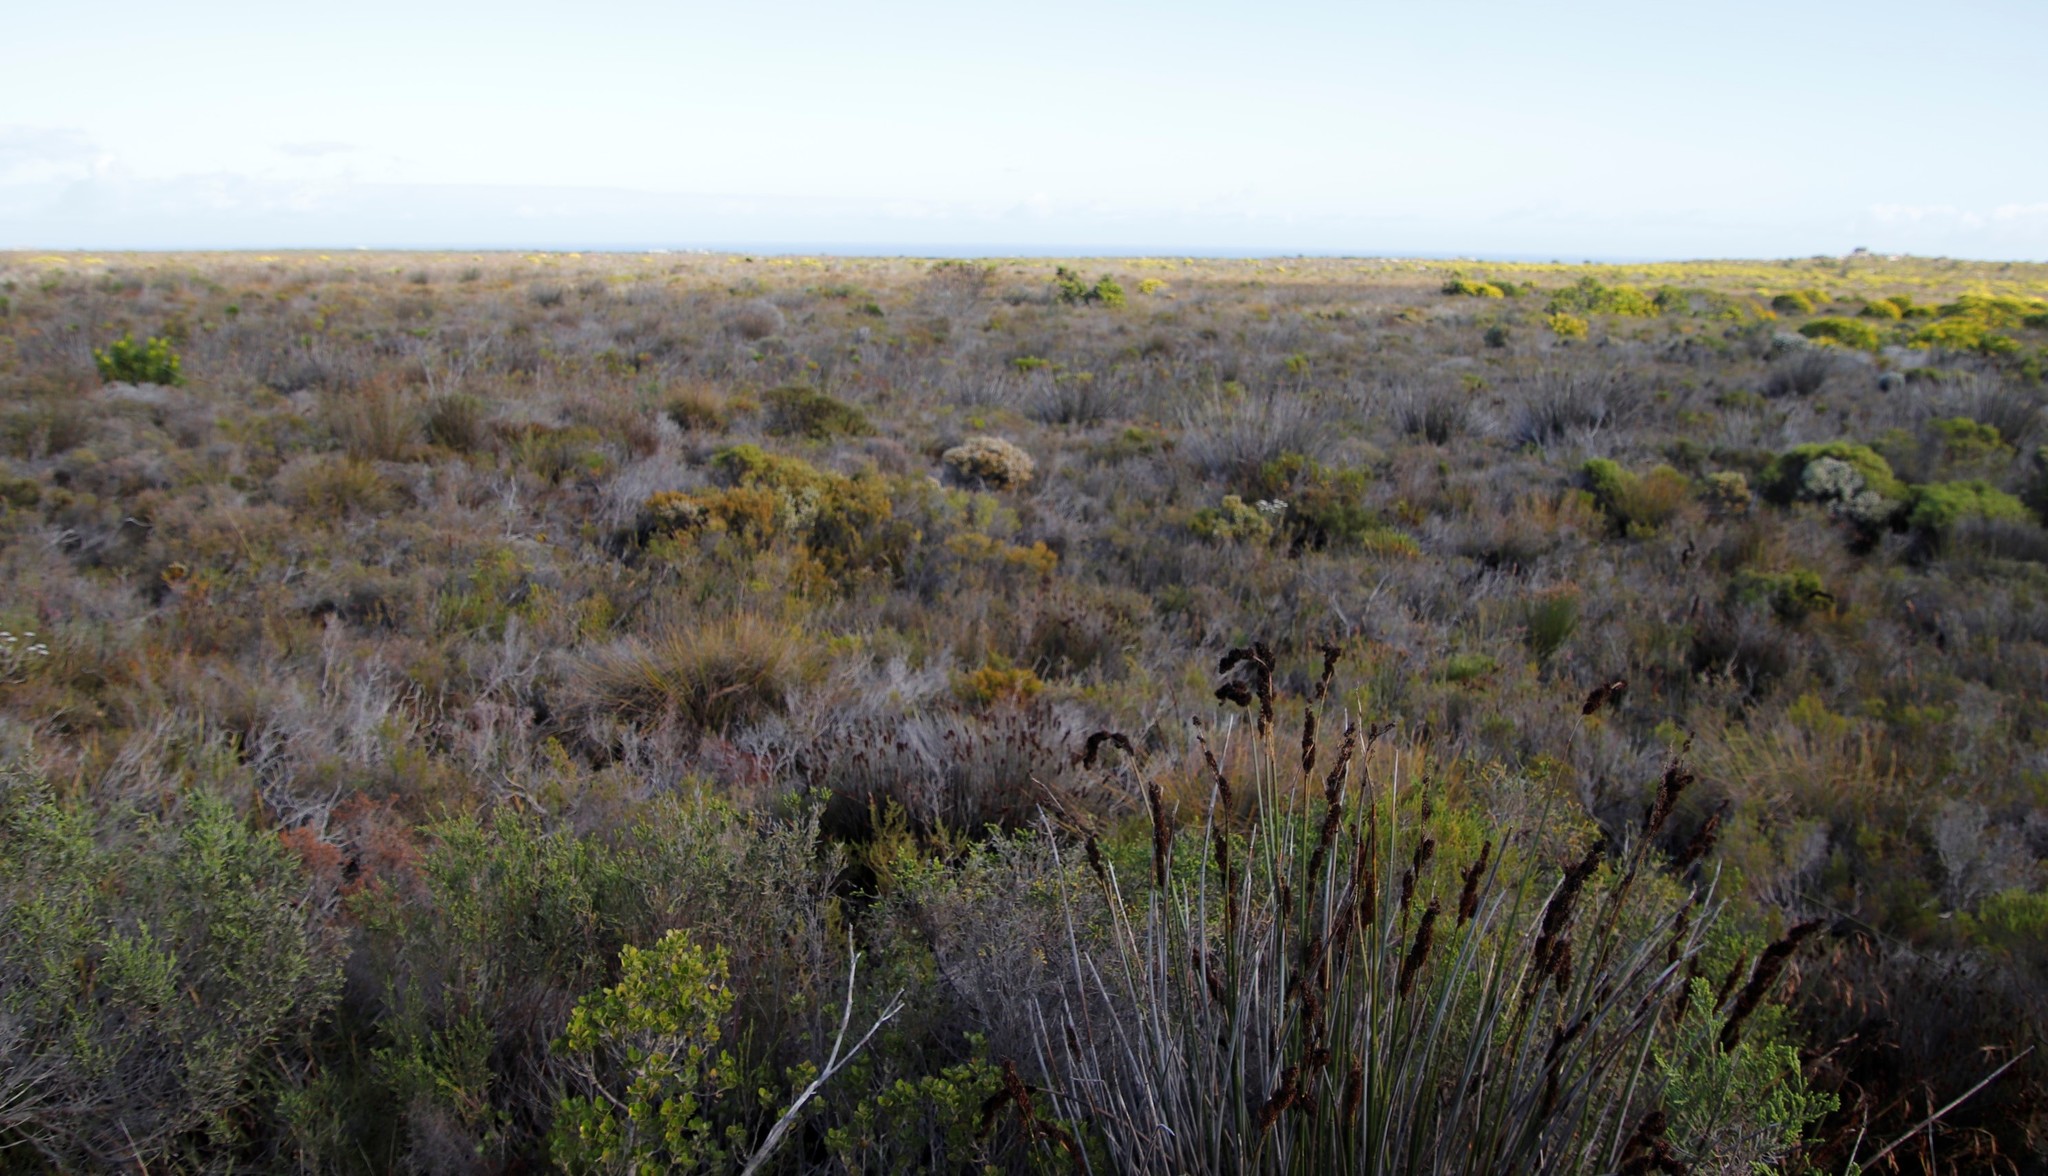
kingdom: Plantae
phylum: Tracheophyta
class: Magnoliopsida
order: Ericales
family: Ericaceae
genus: Erica
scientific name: Erica capensis
